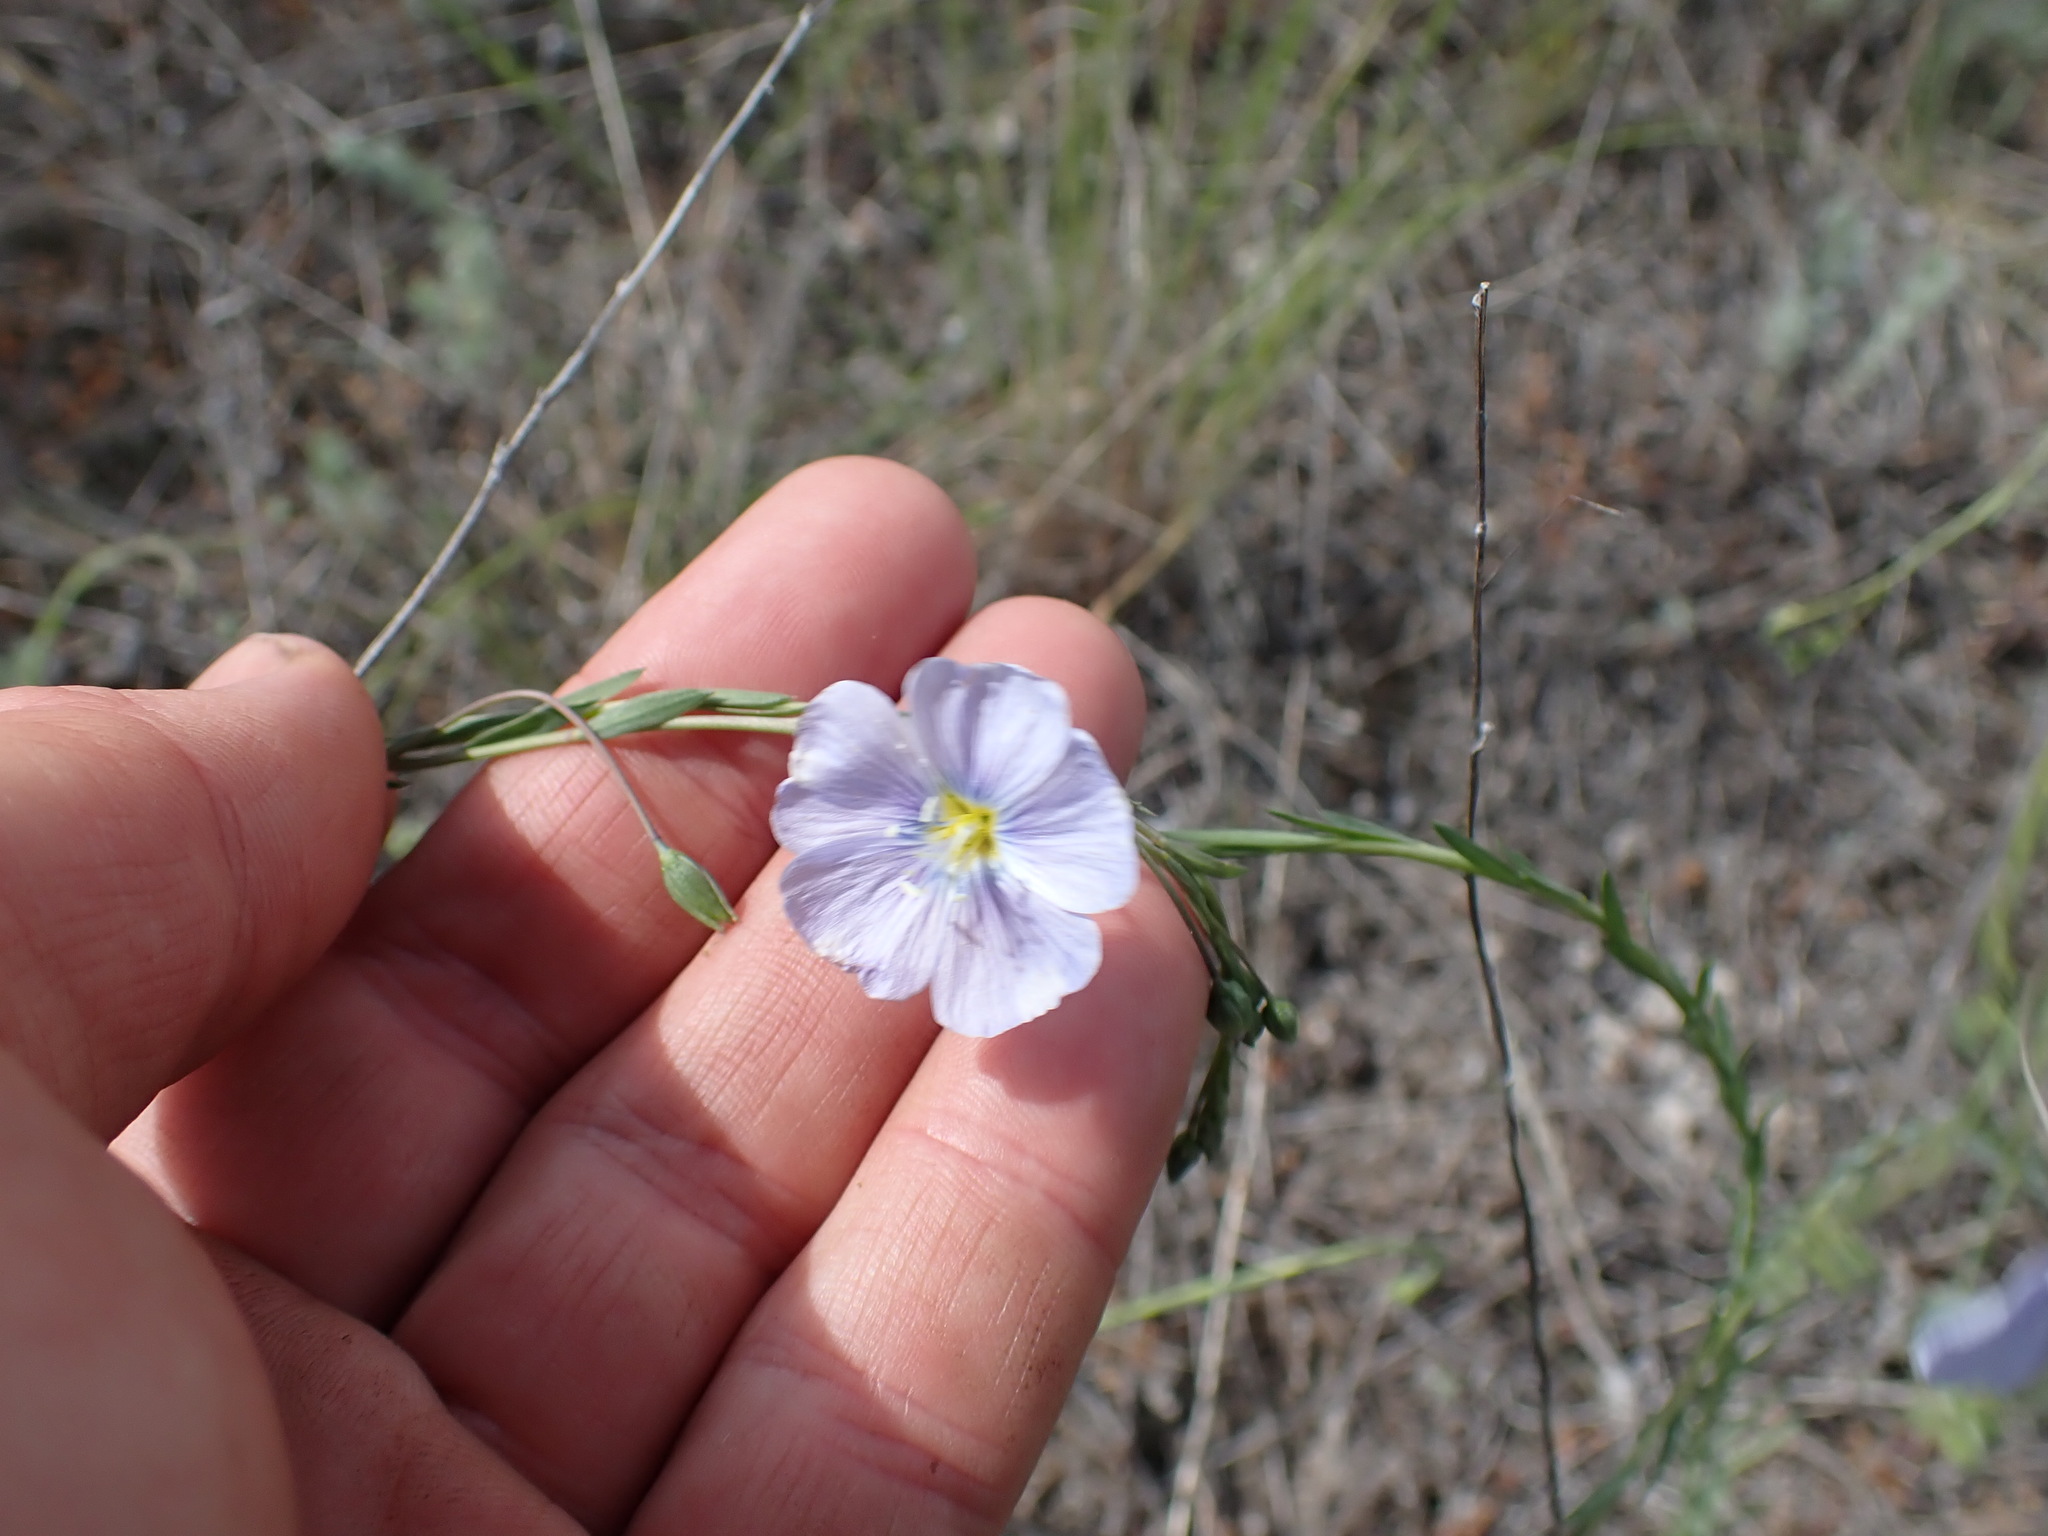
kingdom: Plantae
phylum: Tracheophyta
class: Magnoliopsida
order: Malpighiales
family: Linaceae
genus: Linum
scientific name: Linum lewisii
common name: Prairie flax
